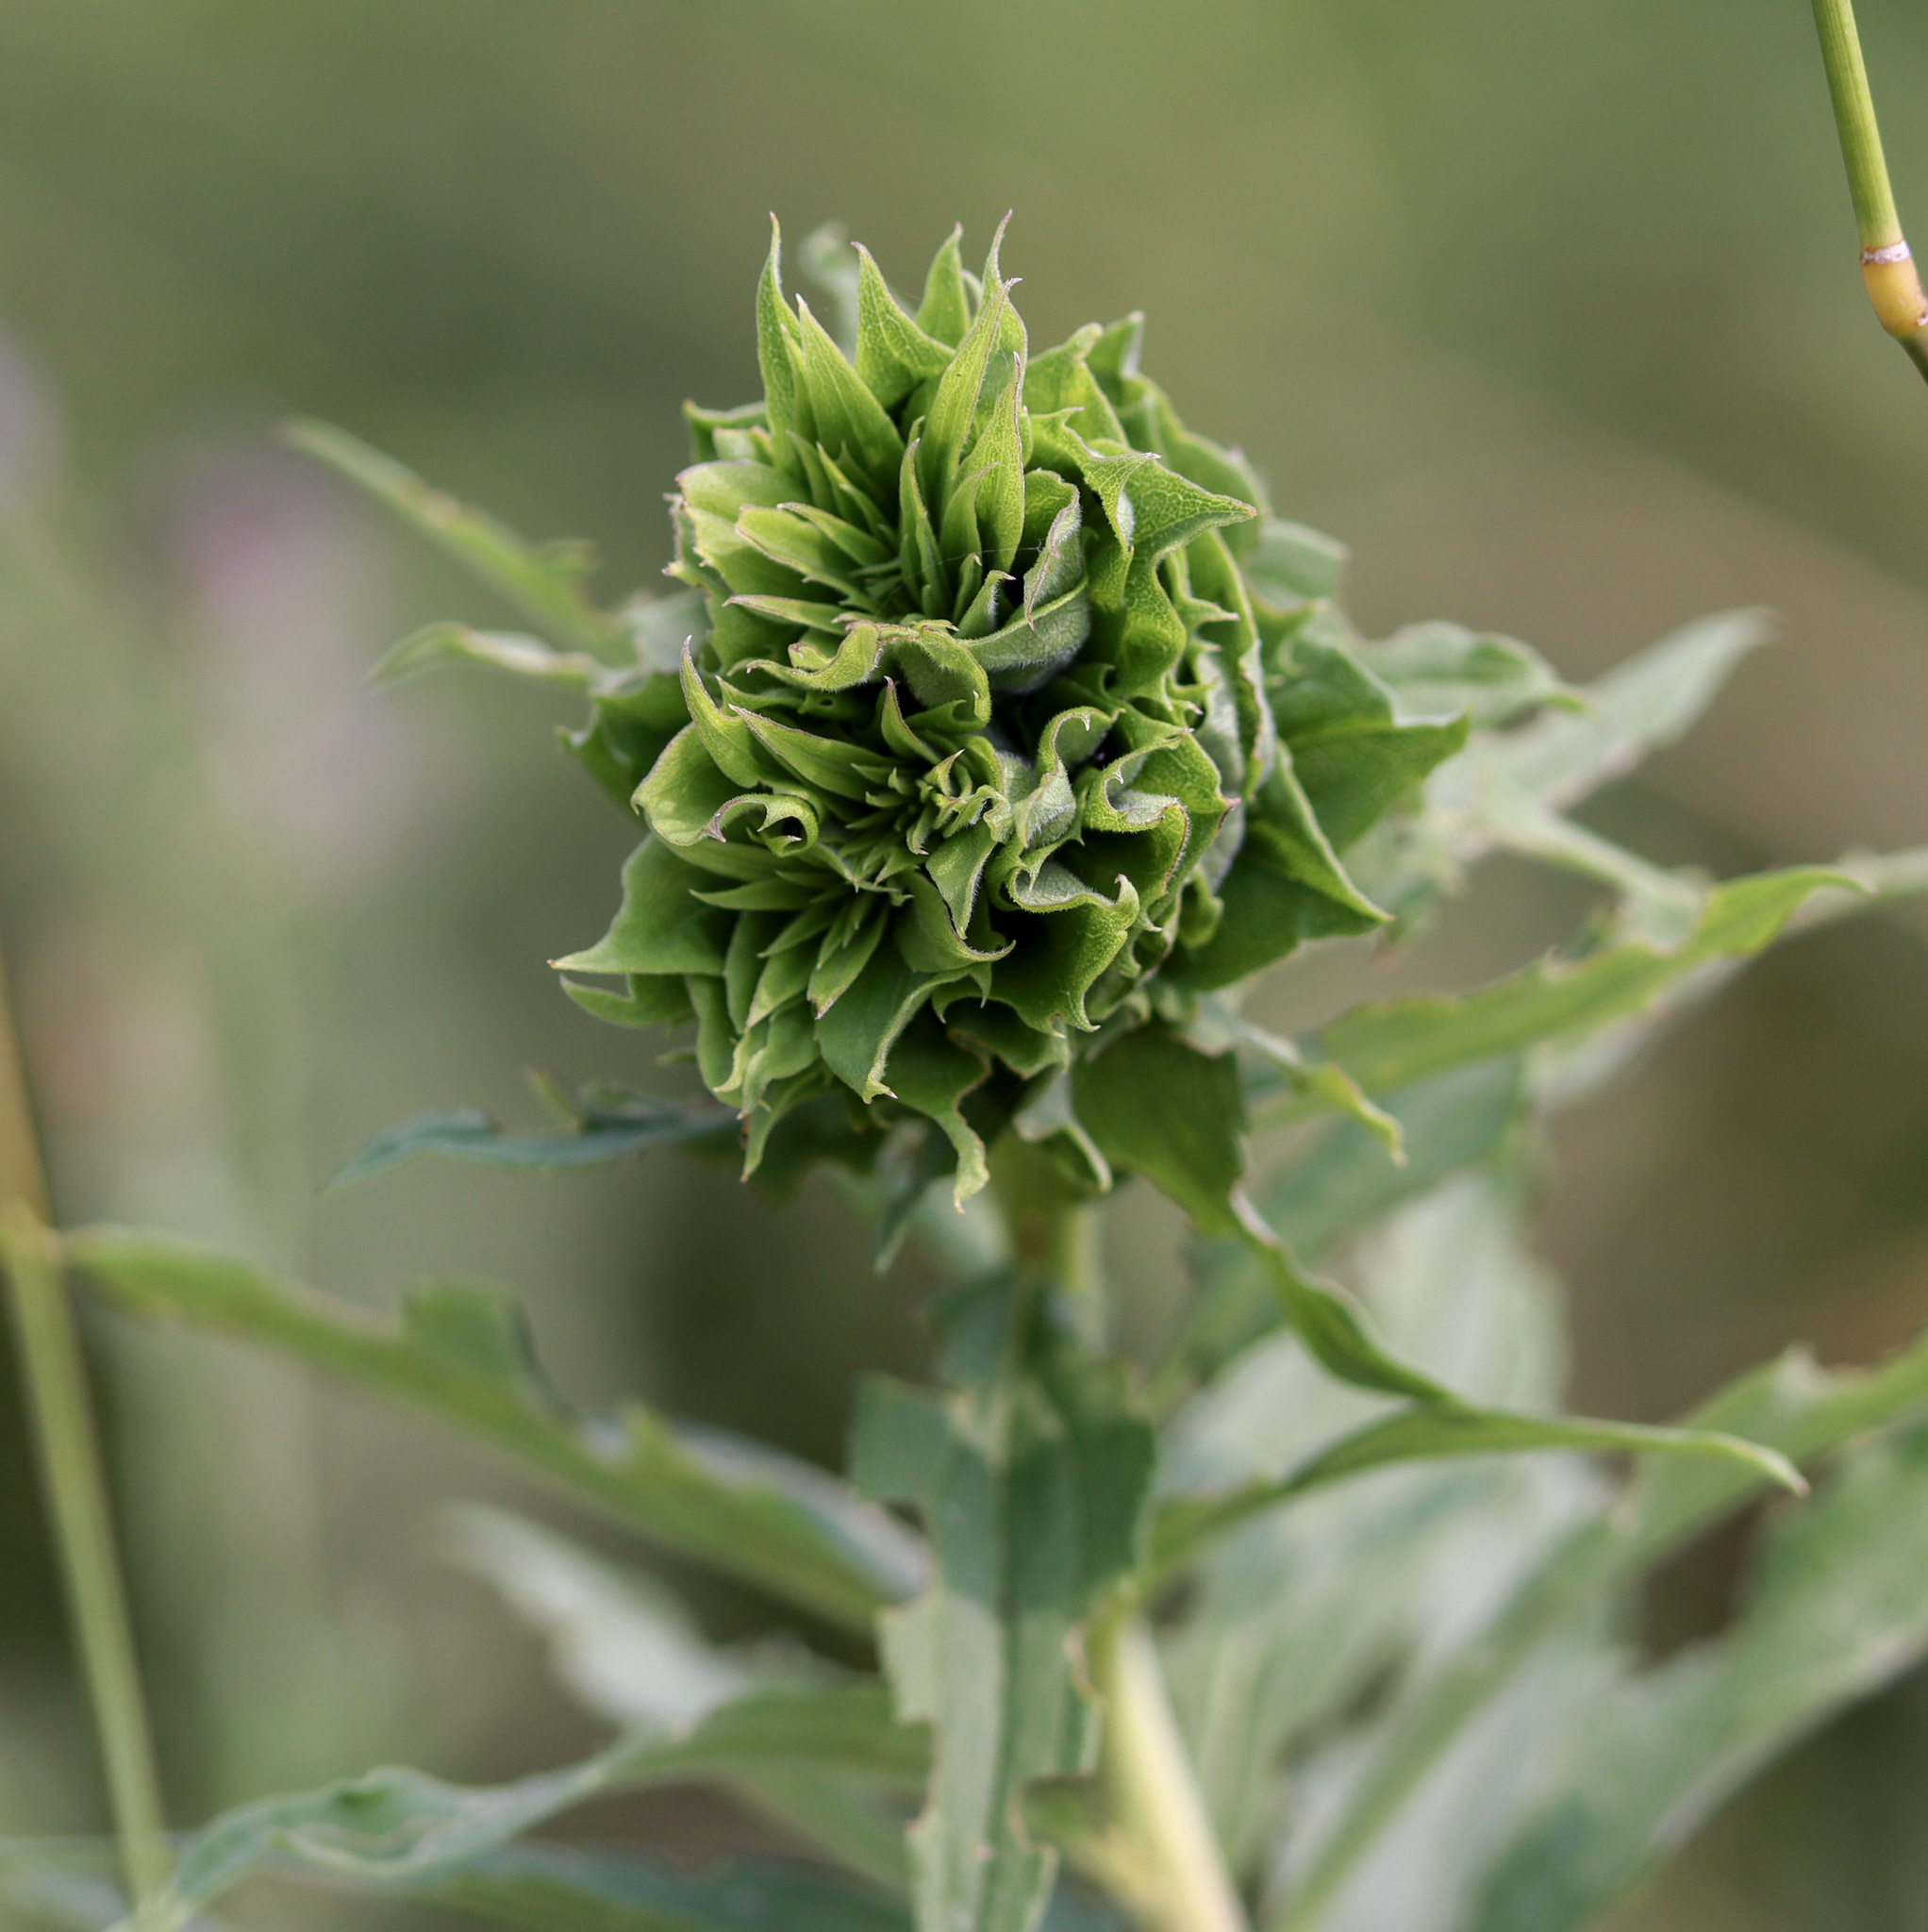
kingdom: Animalia
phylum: Arthropoda
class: Insecta
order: Diptera
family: Cecidomyiidae
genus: Rhopalomyia
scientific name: Rhopalomyia solidaginis
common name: Goldenrod bunch gall midge
